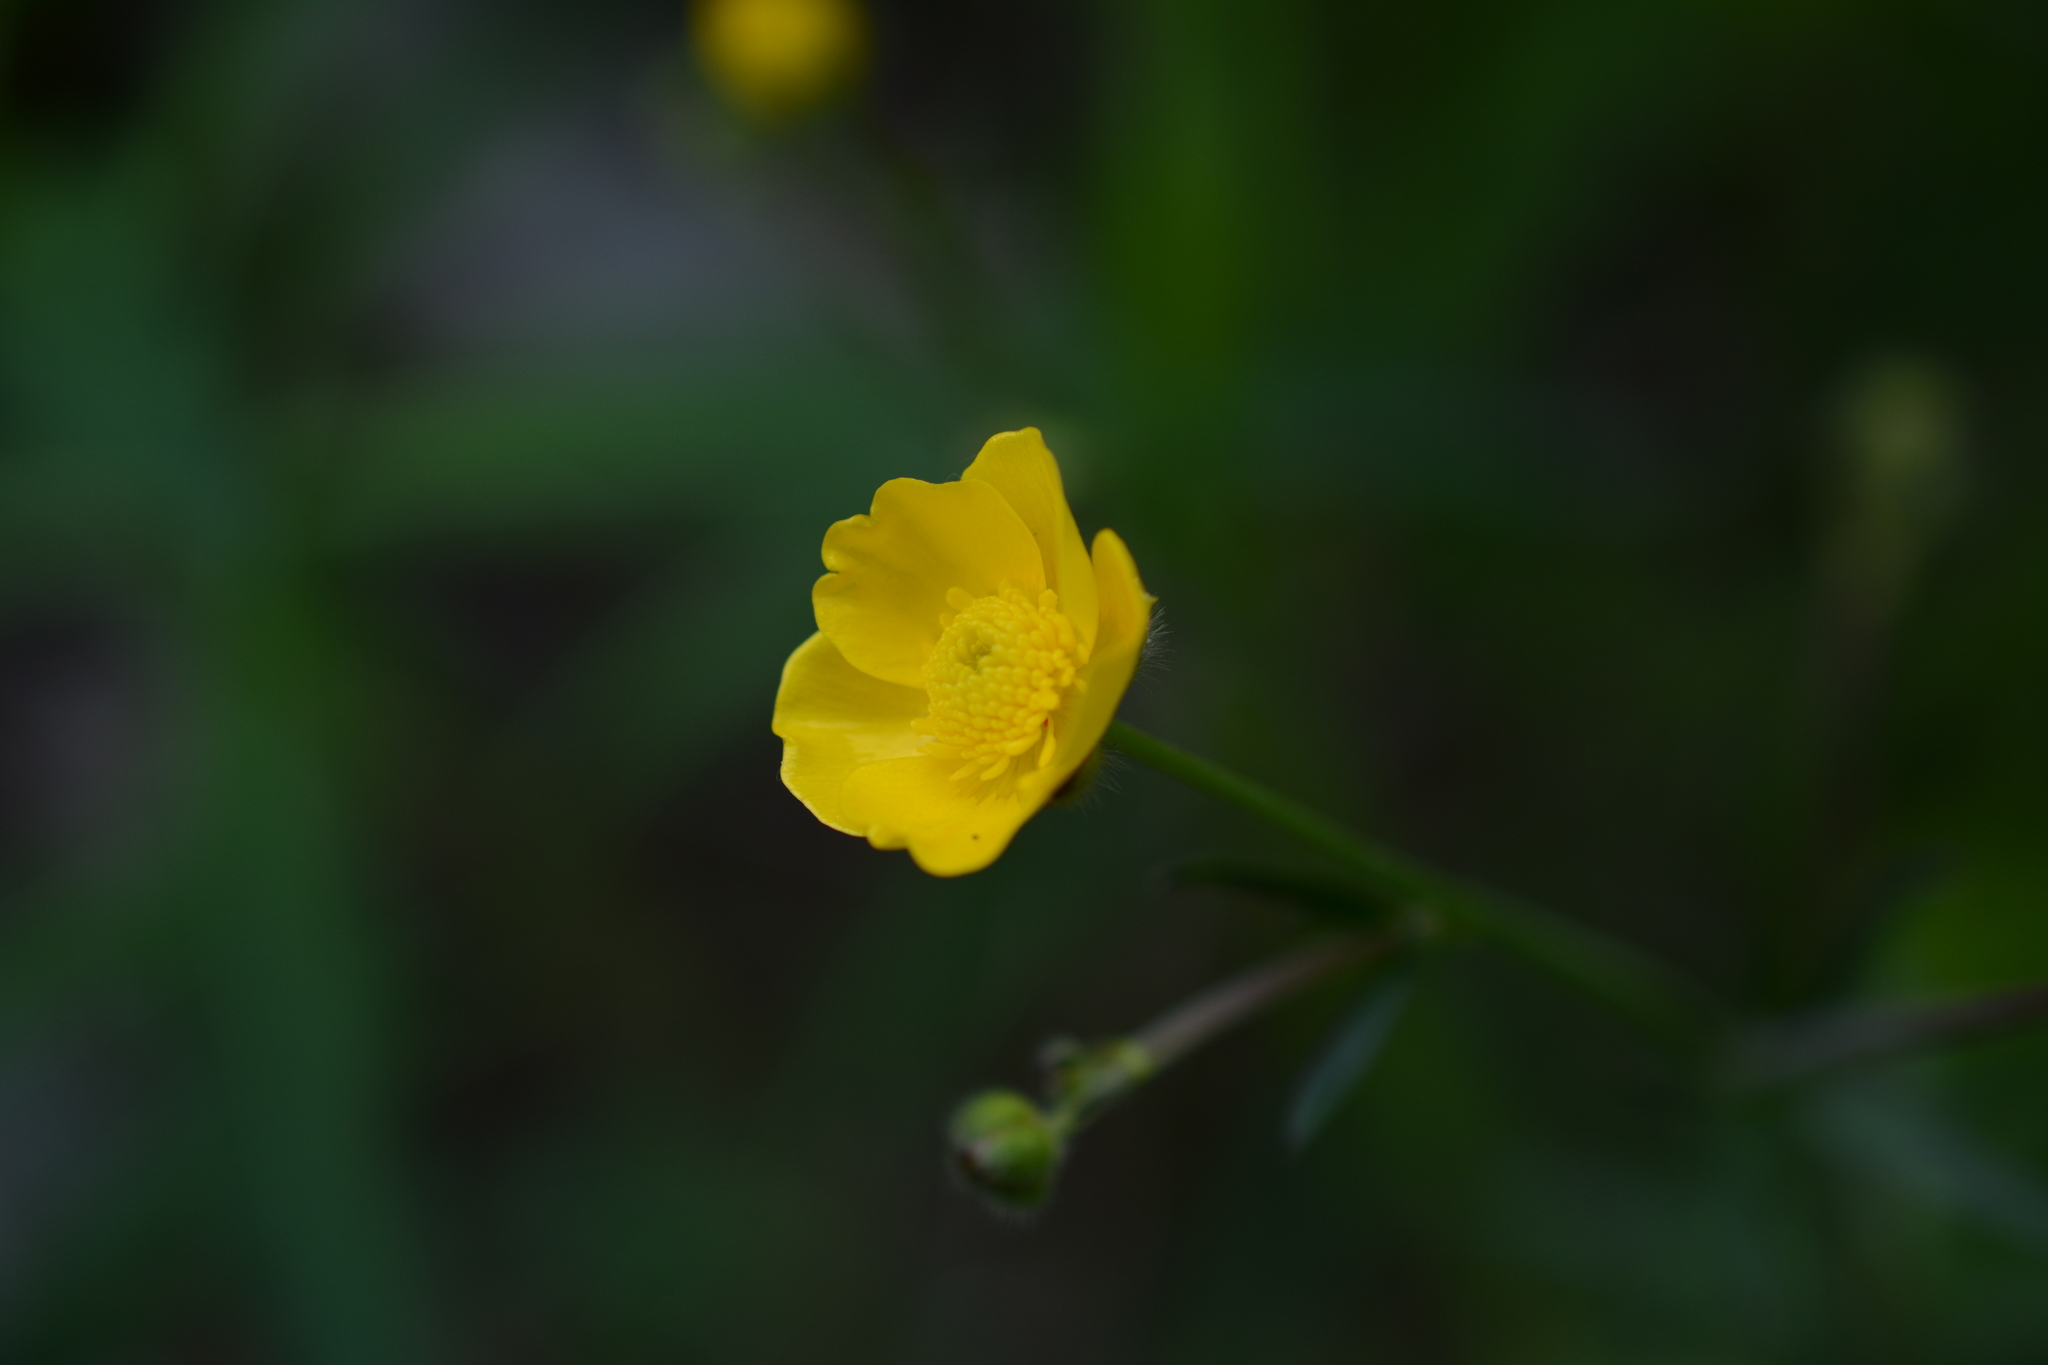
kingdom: Plantae
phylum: Tracheophyta
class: Magnoliopsida
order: Ranunculales
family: Ranunculaceae
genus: Ranunculus
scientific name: Ranunculus acris
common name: Meadow buttercup
